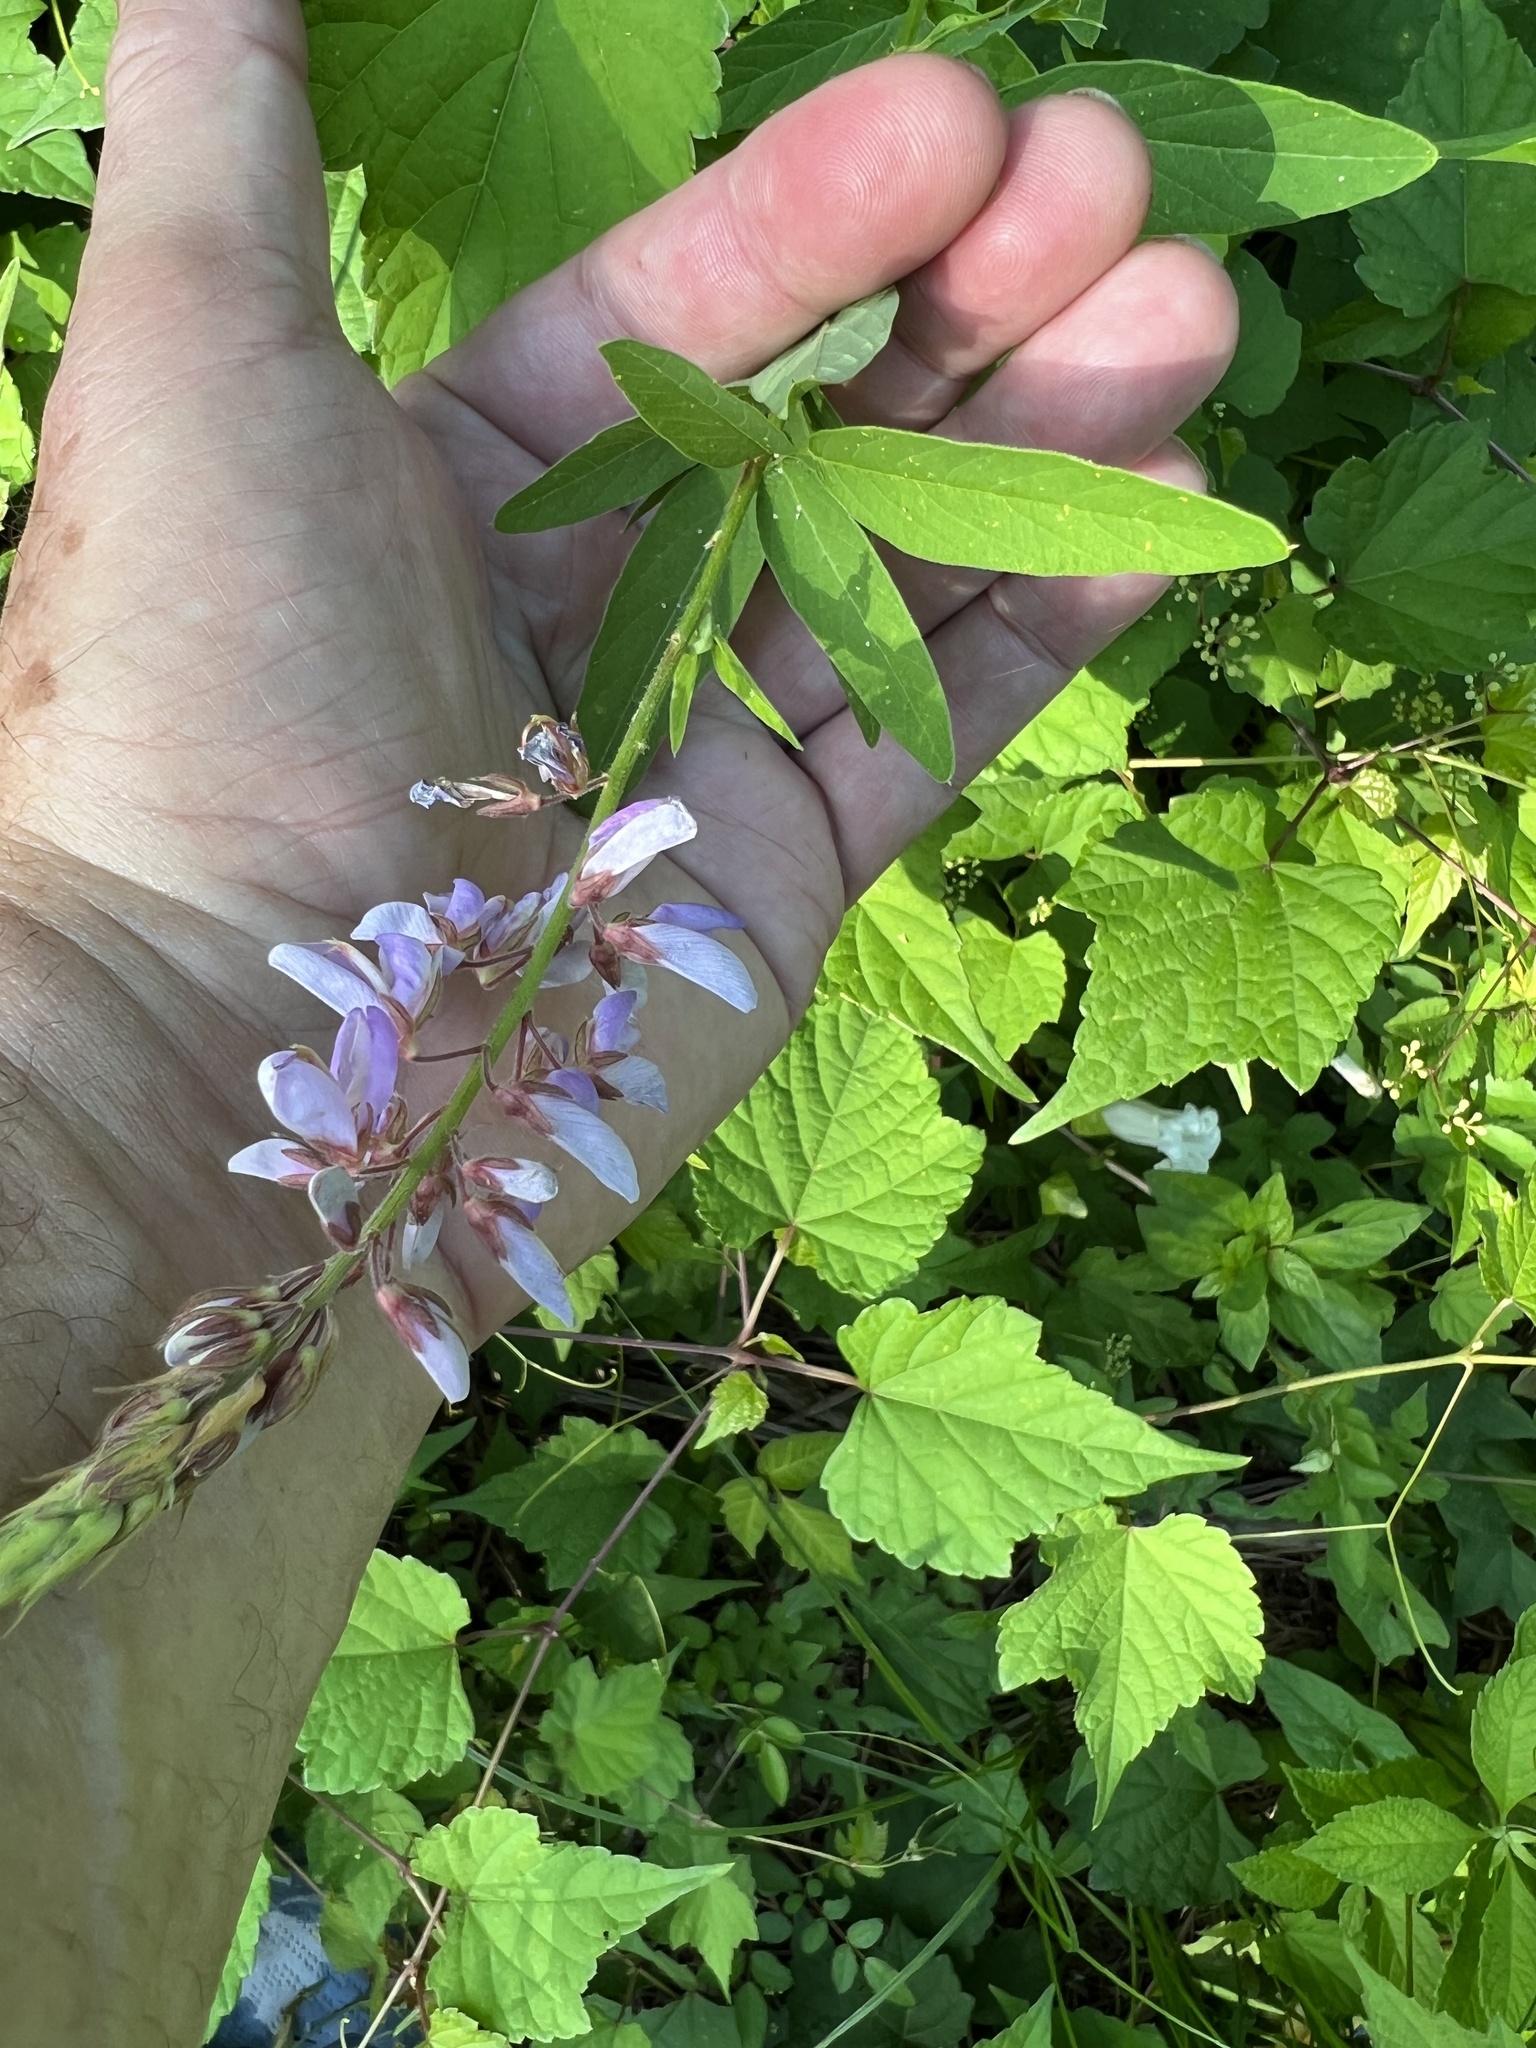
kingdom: Plantae
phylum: Tracheophyta
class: Magnoliopsida
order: Fabales
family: Fabaceae
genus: Desmodium
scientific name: Desmodium canadense
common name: Canada tick-trefoil
